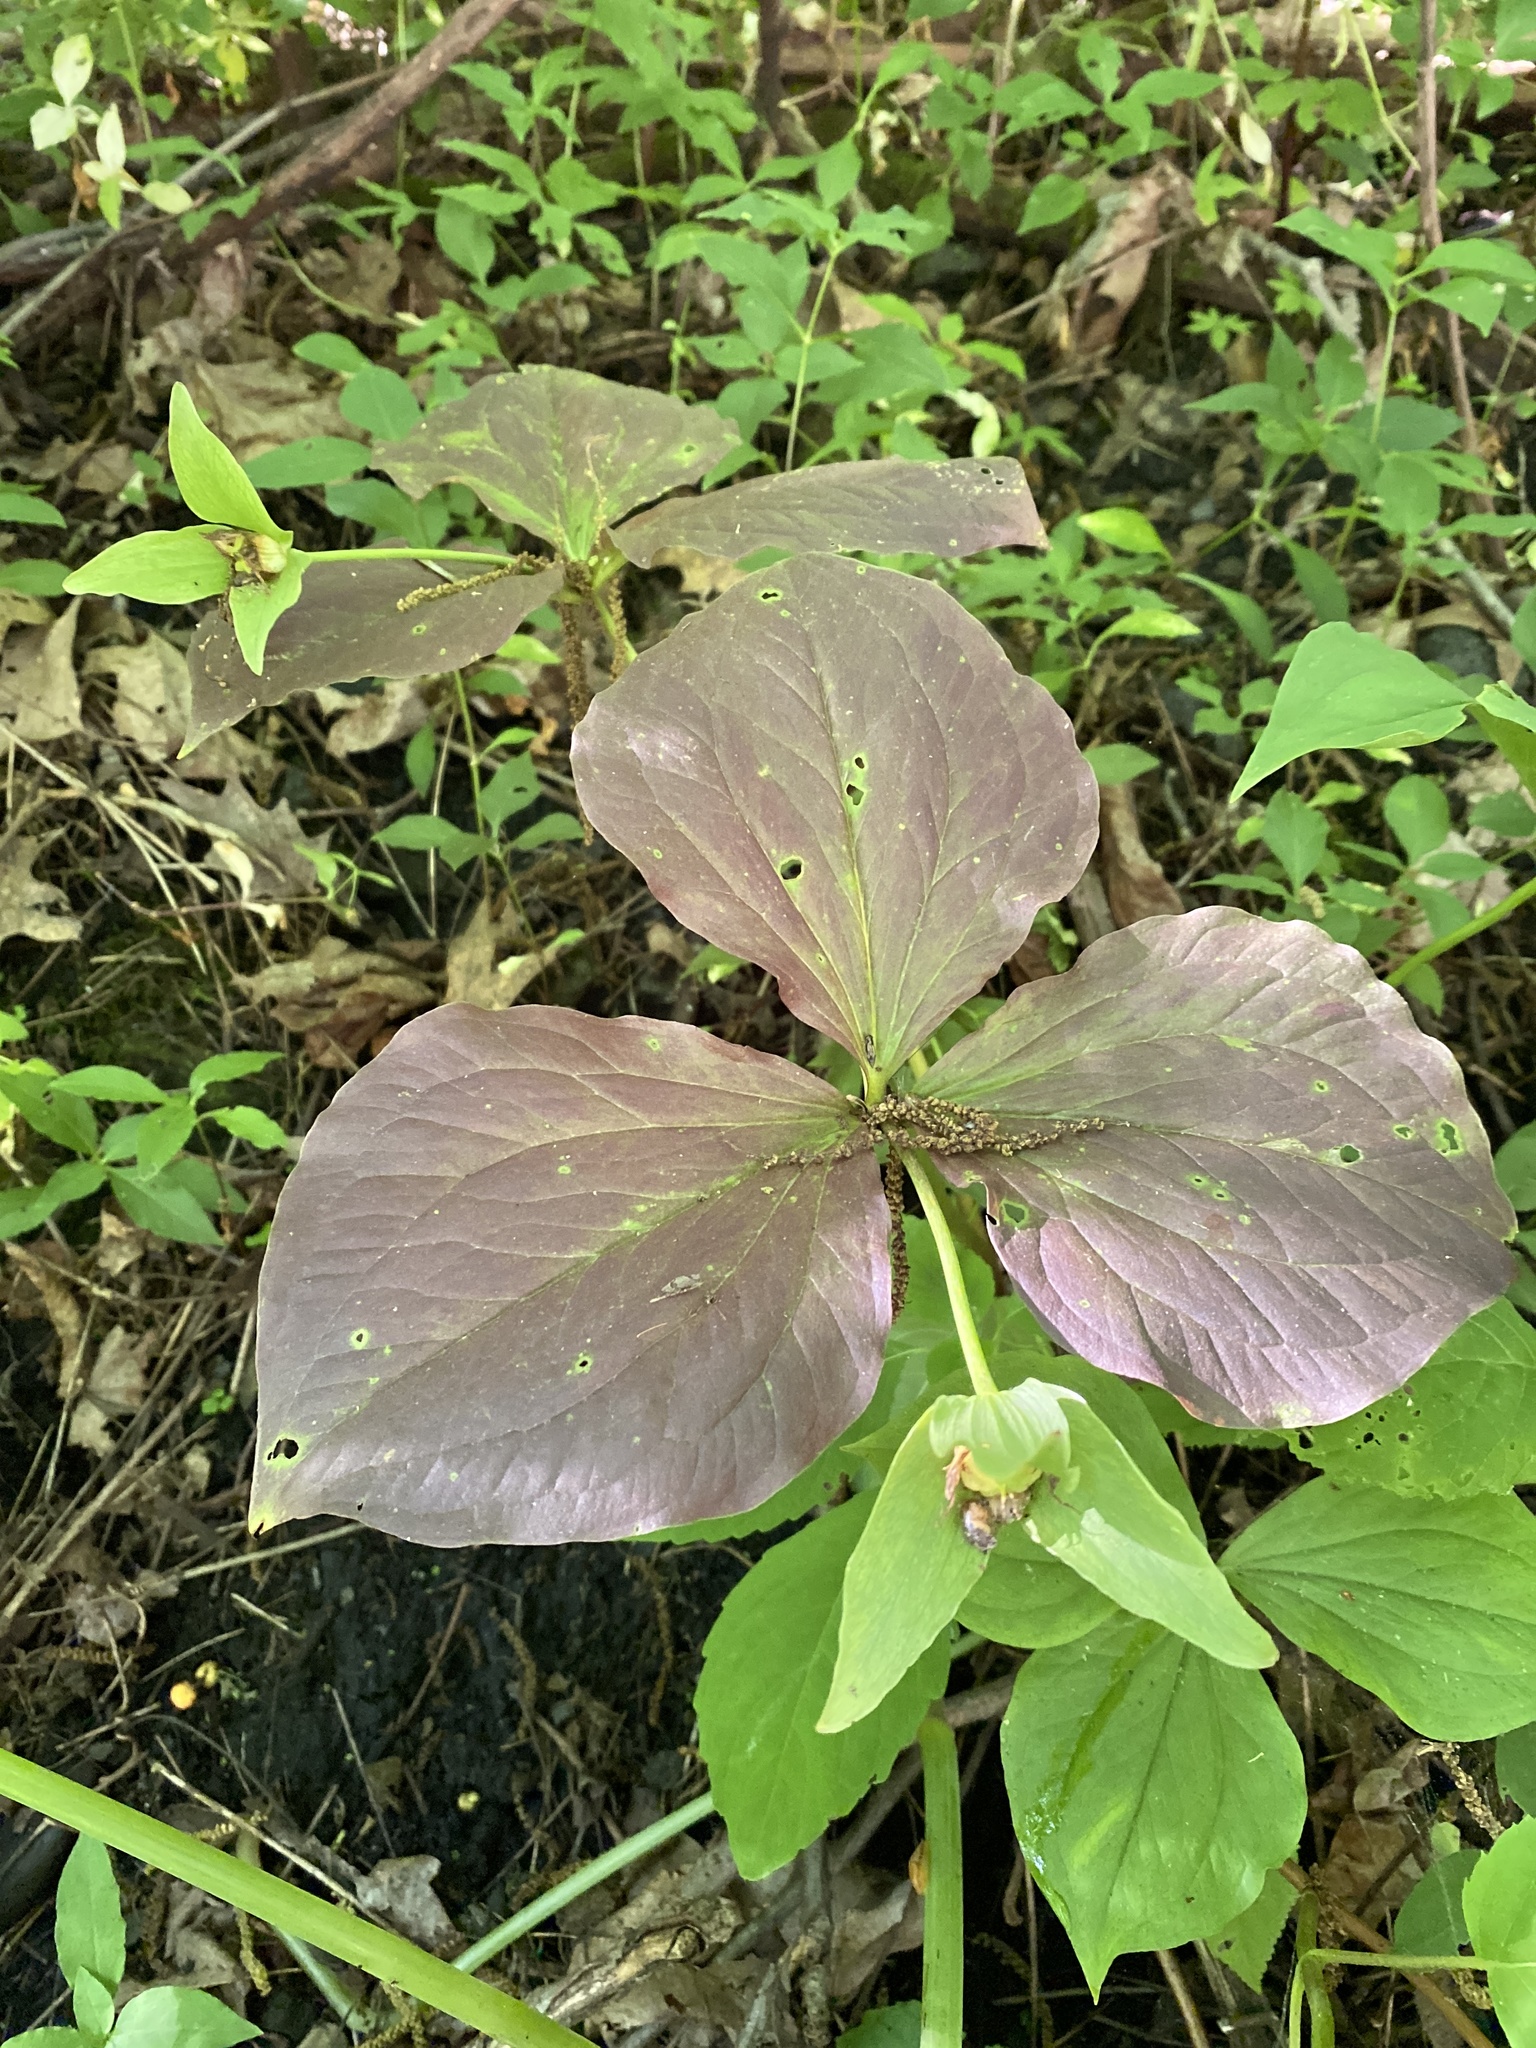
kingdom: Plantae
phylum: Tracheophyta
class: Liliopsida
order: Liliales
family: Melanthiaceae
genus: Trillium
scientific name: Trillium grandiflorum
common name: Great white trillium
